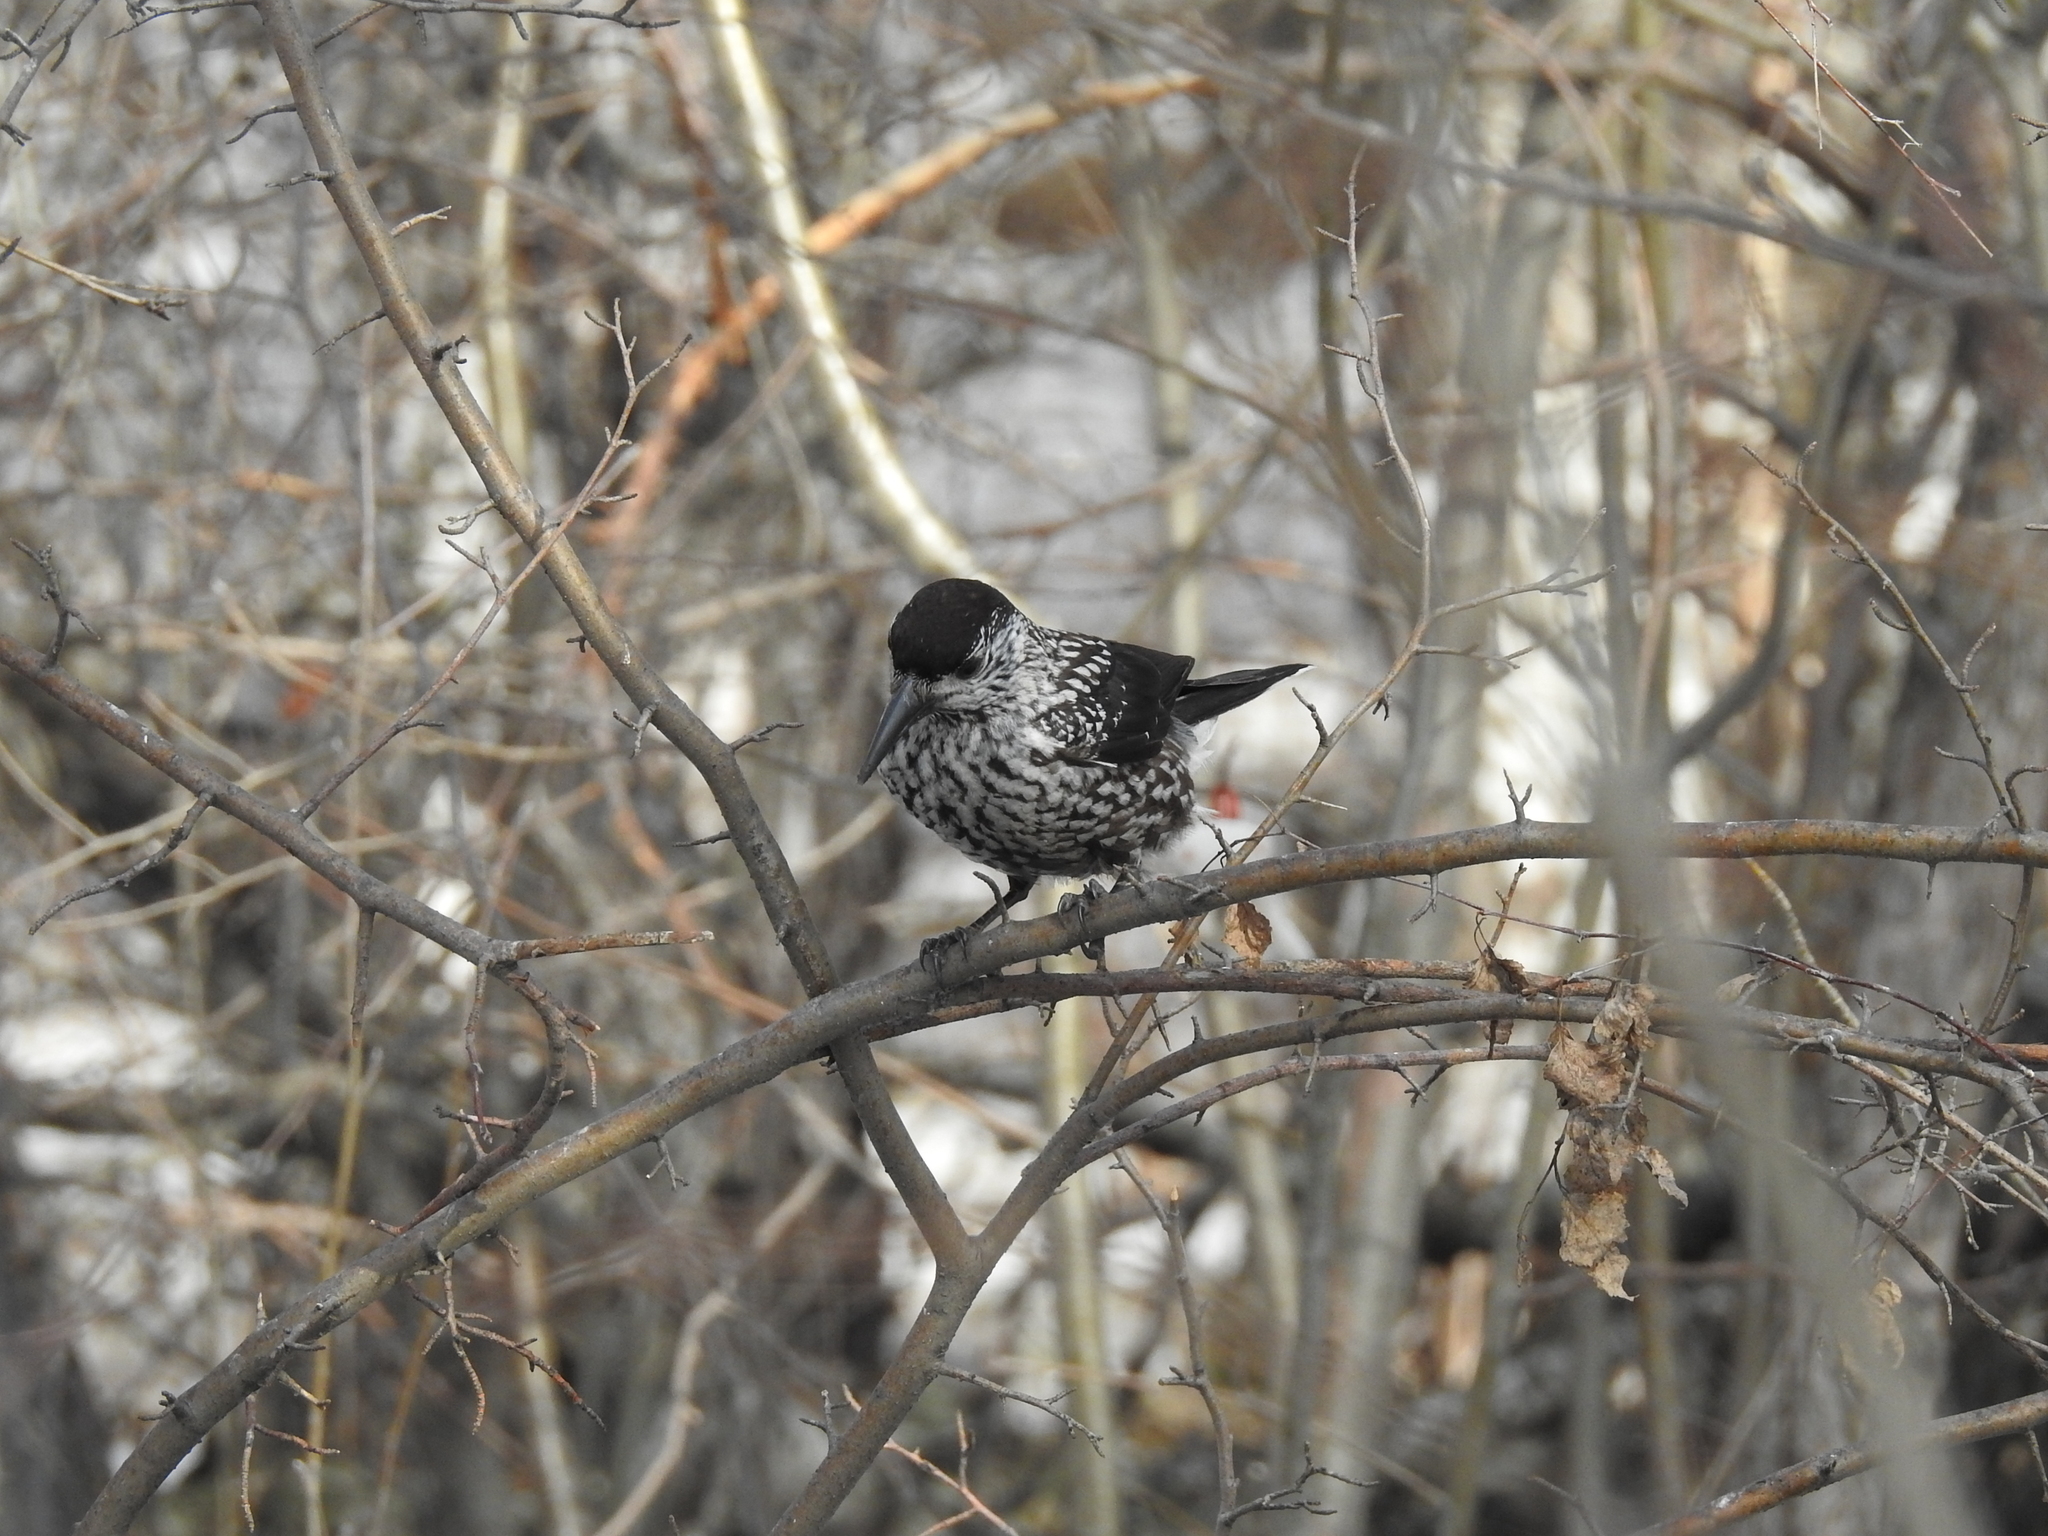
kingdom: Animalia
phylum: Chordata
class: Aves
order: Passeriformes
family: Corvidae
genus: Nucifraga
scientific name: Nucifraga caryocatactes
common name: Spotted nutcracker
